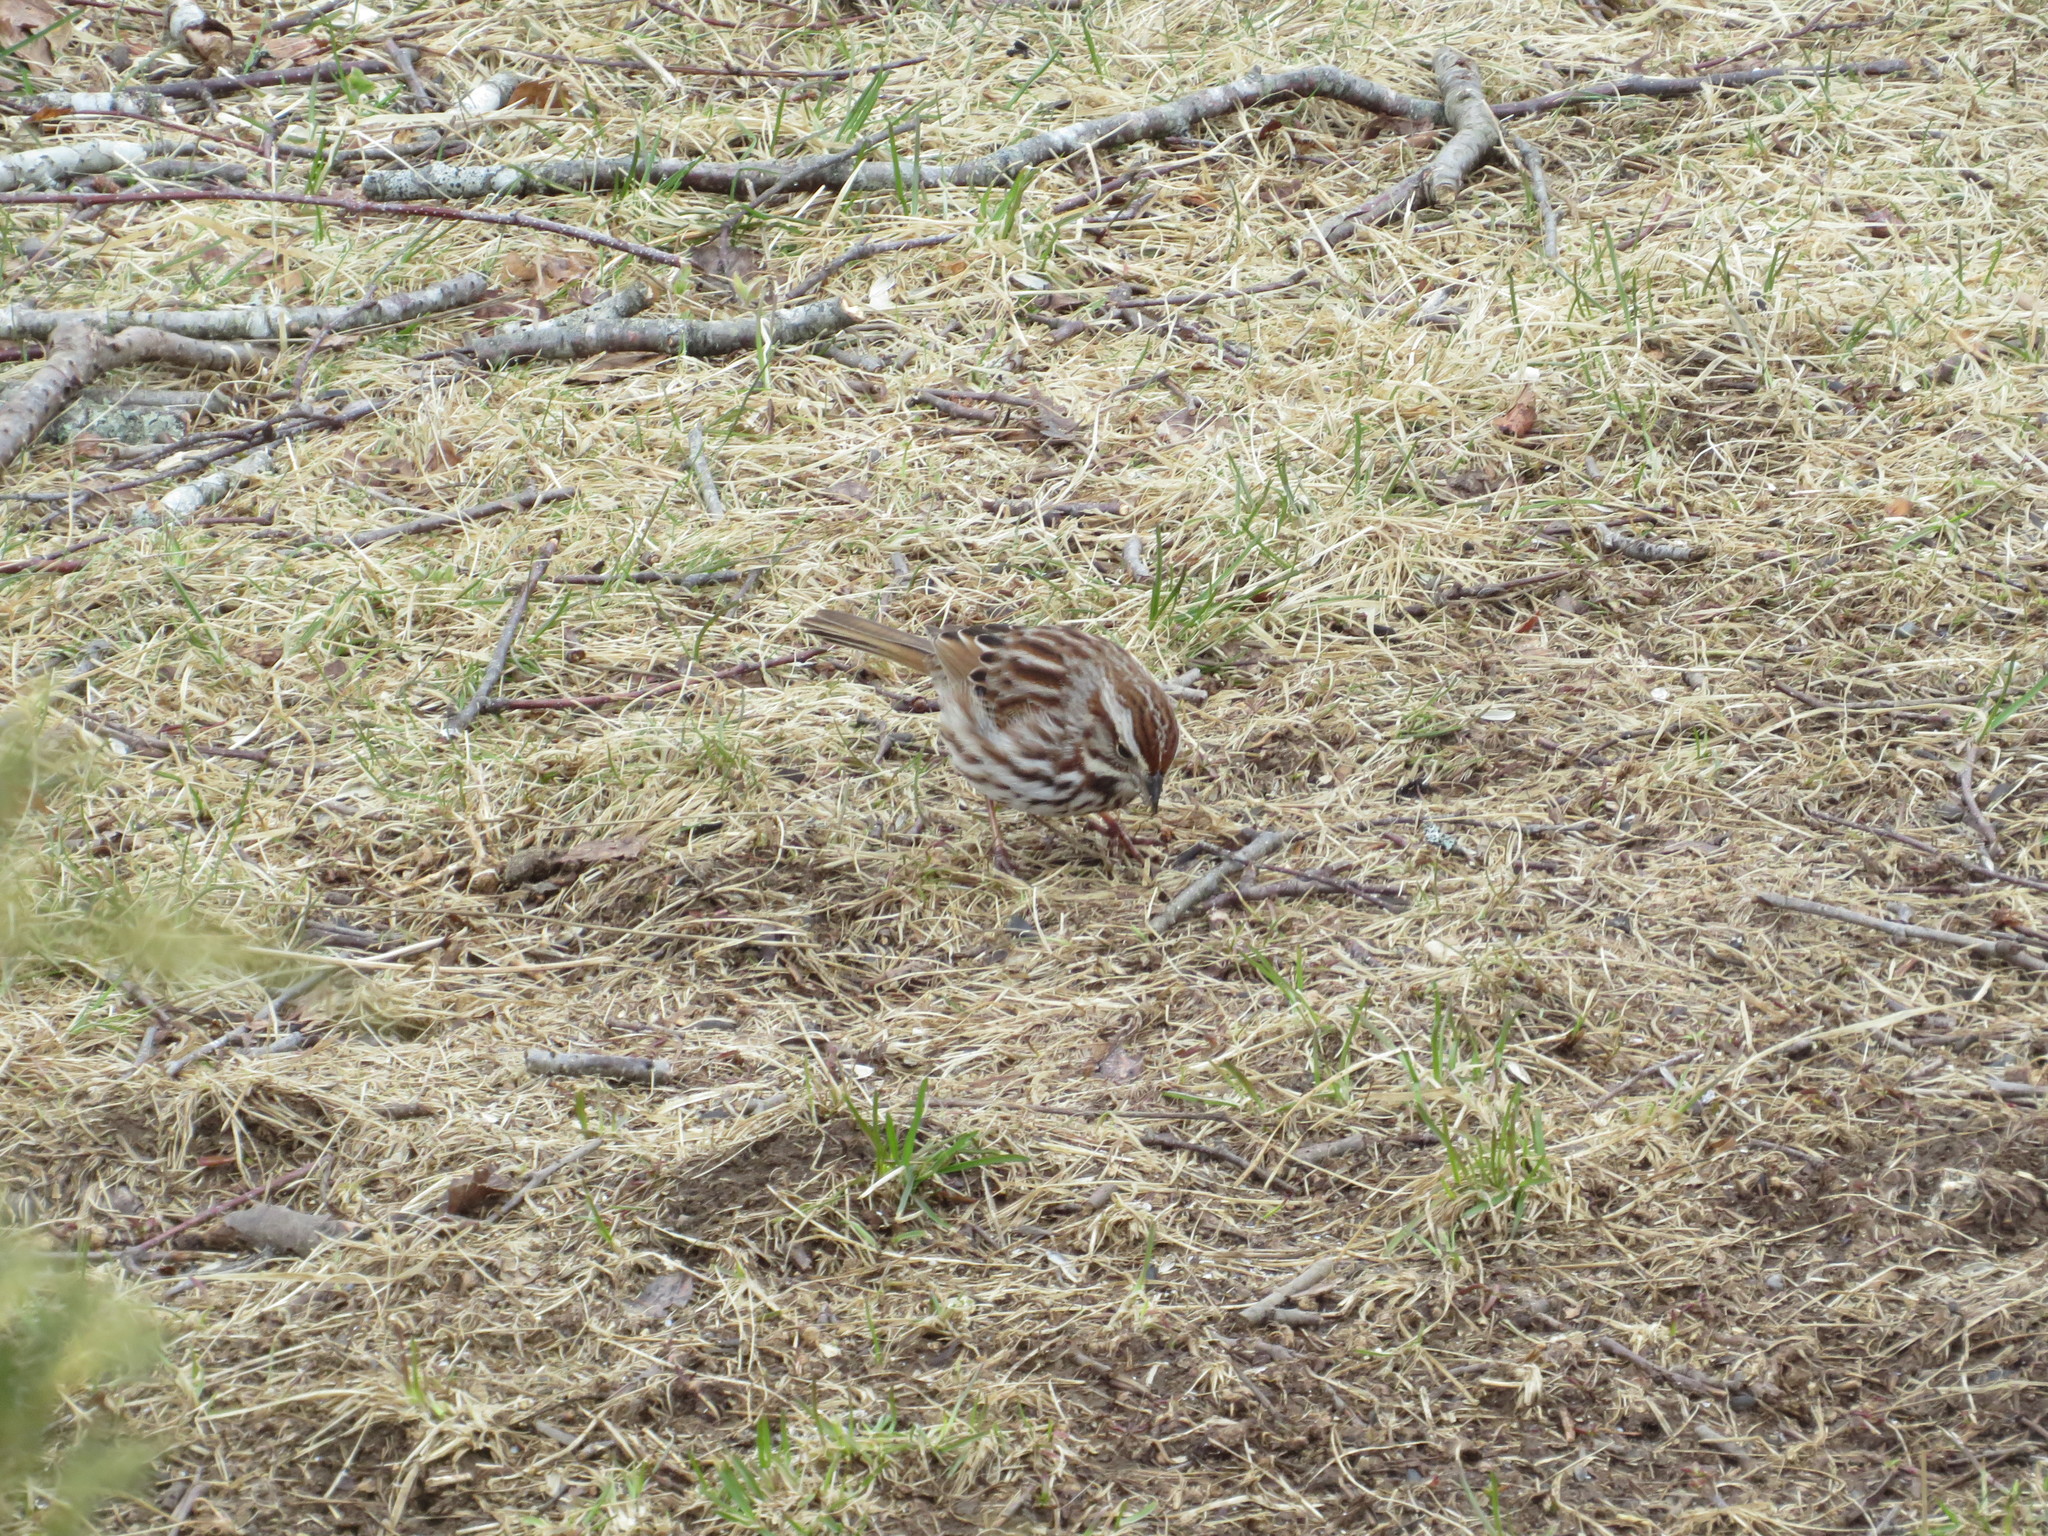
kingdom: Animalia
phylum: Chordata
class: Aves
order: Passeriformes
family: Passerellidae
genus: Melospiza
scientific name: Melospiza melodia
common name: Song sparrow
